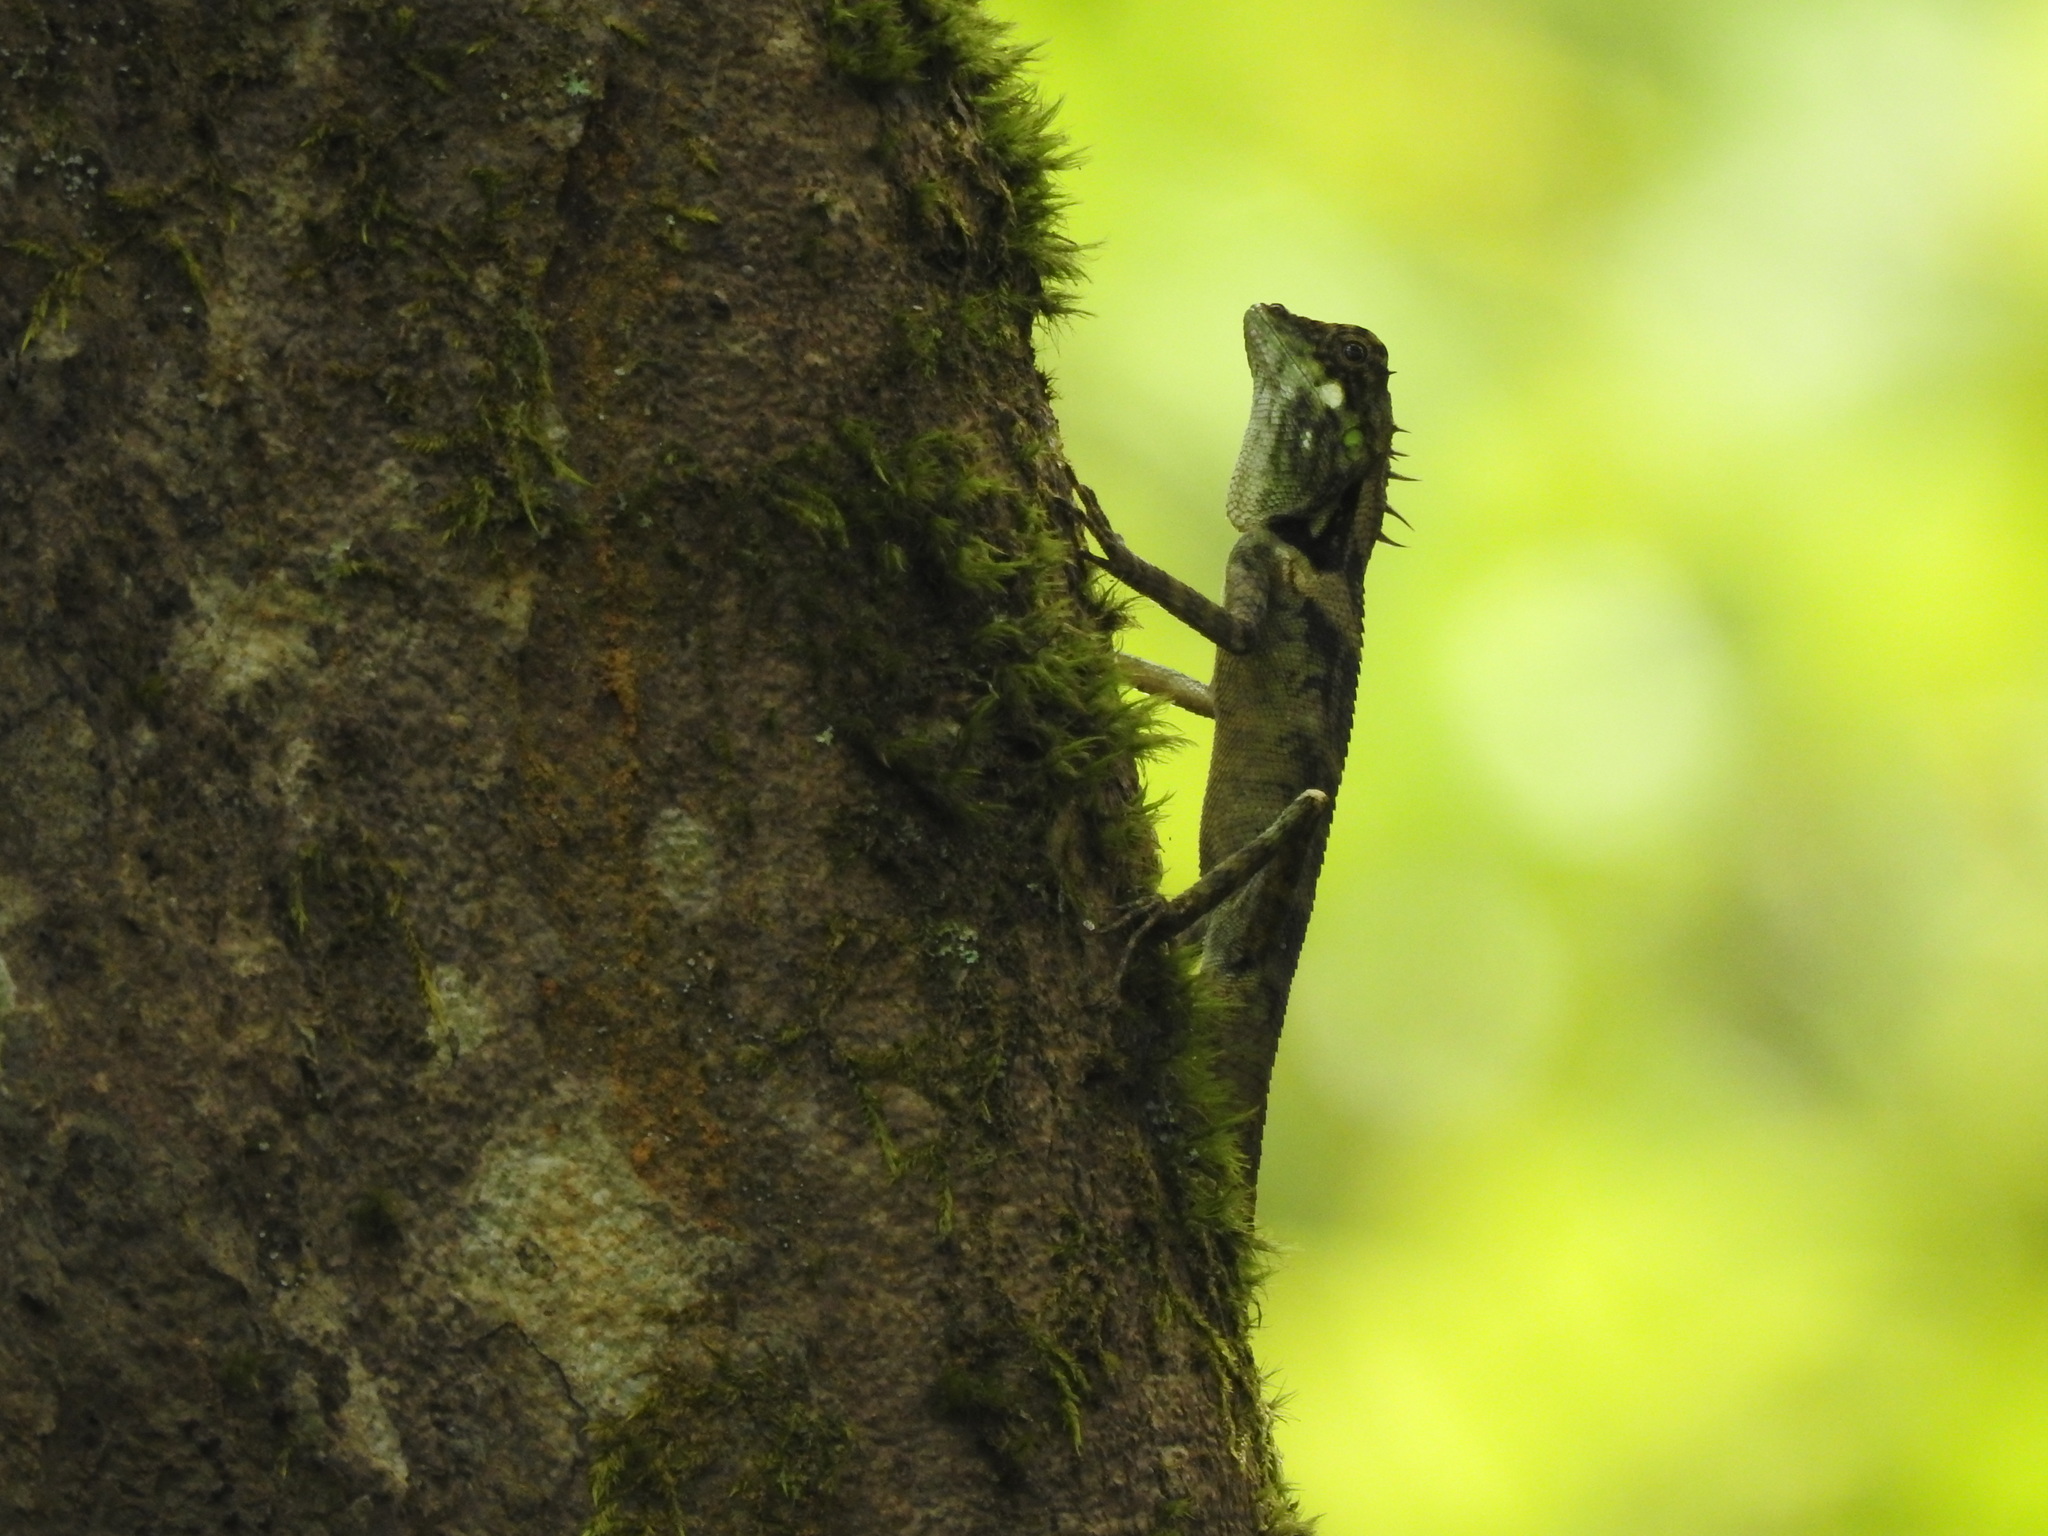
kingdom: Animalia
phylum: Chordata
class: Squamata
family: Agamidae
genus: Monilesaurus
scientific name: Monilesaurus ellioti
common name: Elliot's forest lizard
